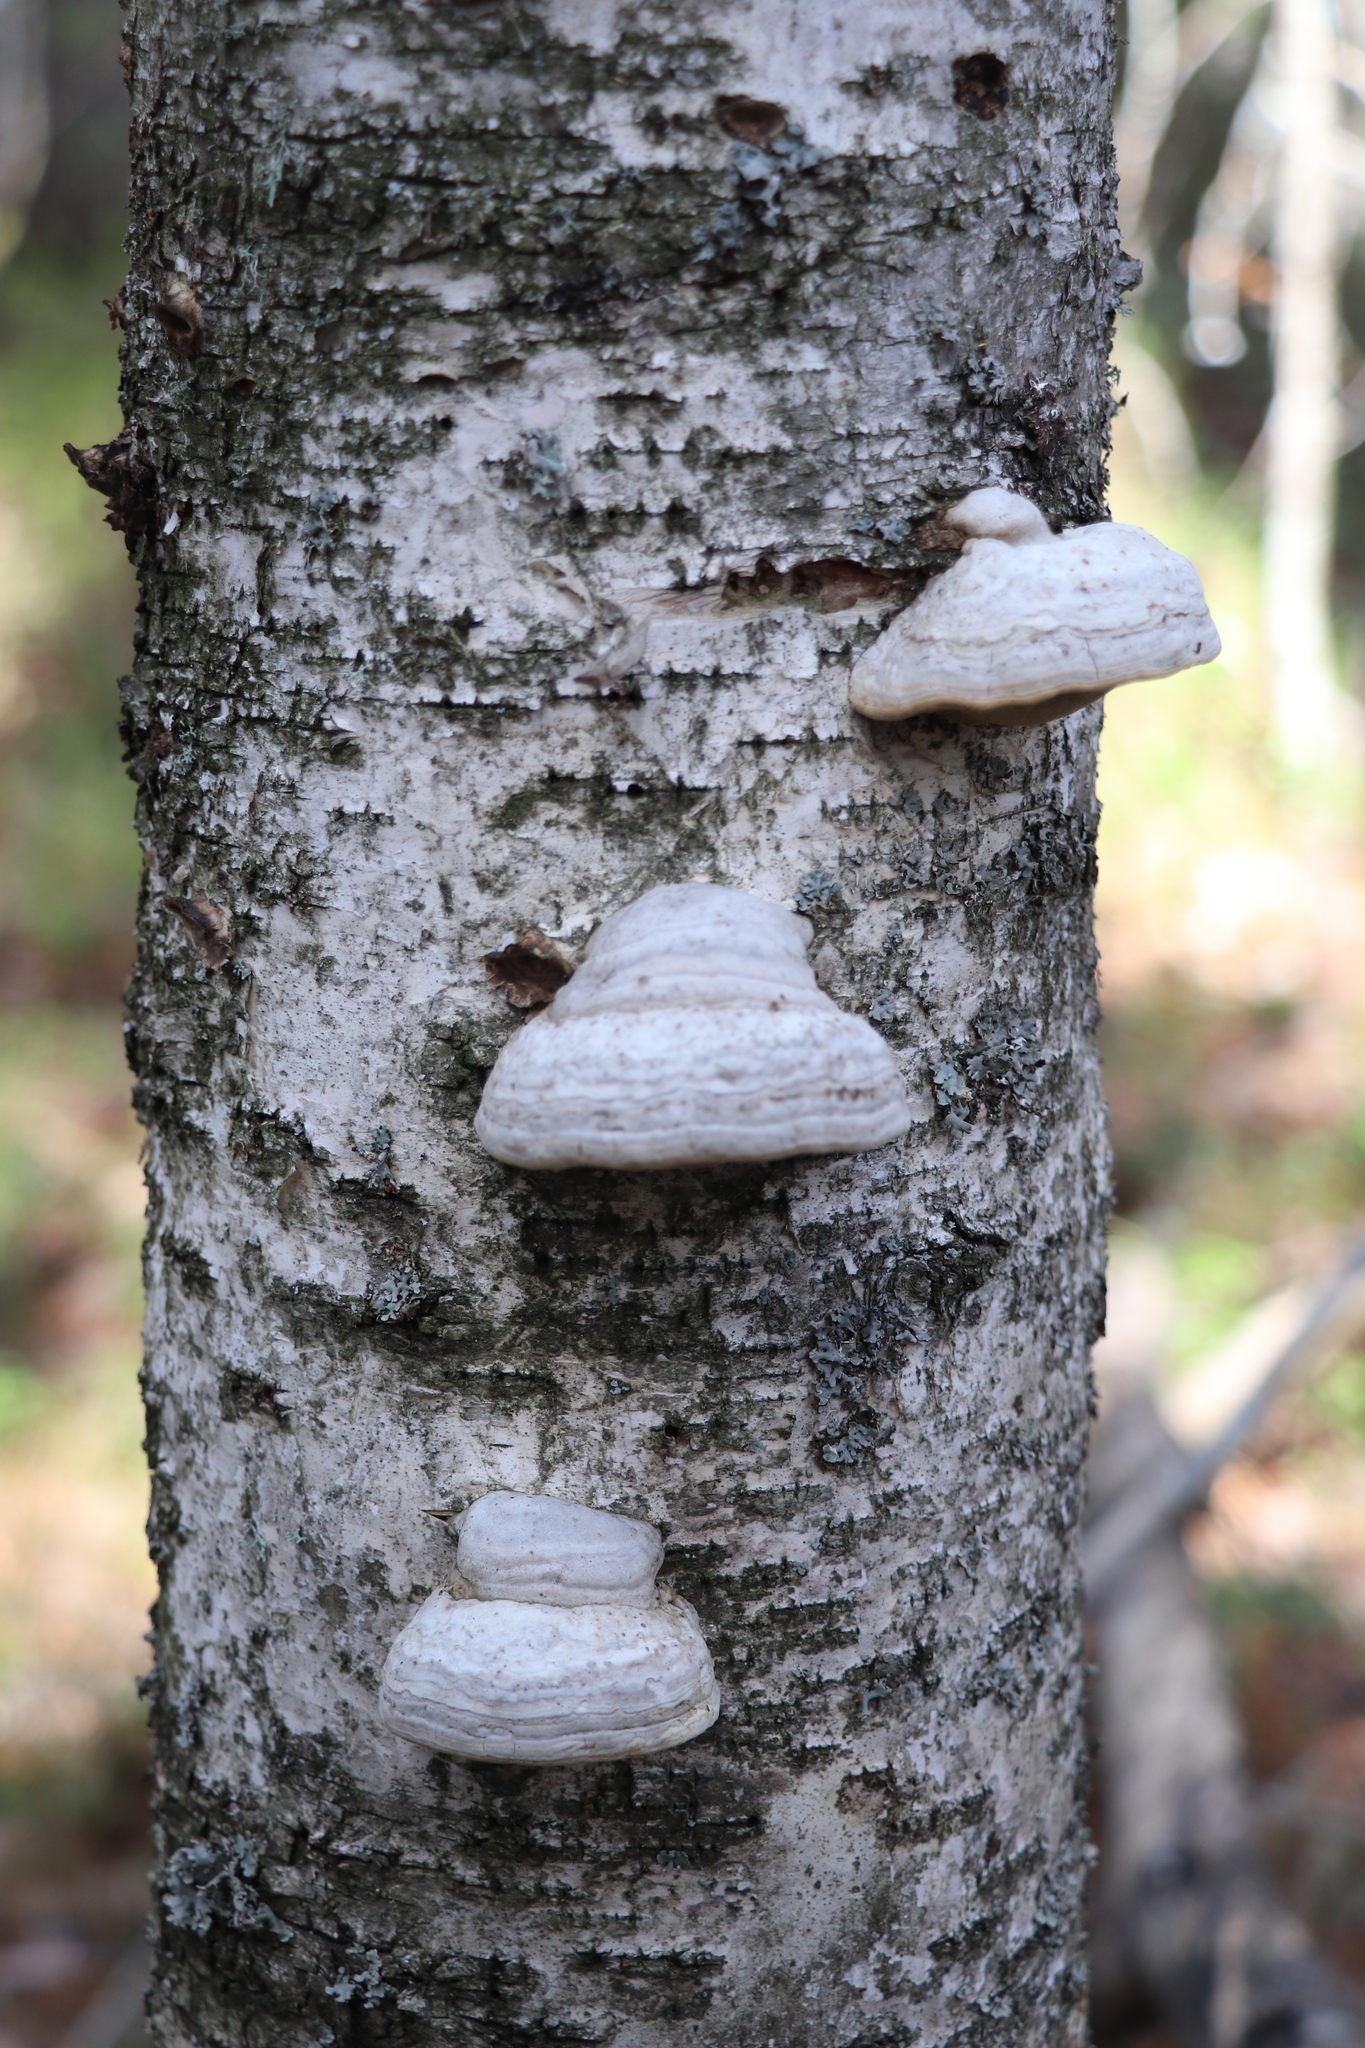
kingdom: Fungi
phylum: Basidiomycota
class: Agaricomycetes
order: Polyporales
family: Polyporaceae
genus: Fomes
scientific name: Fomes fomentarius
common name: Hoof fungus
